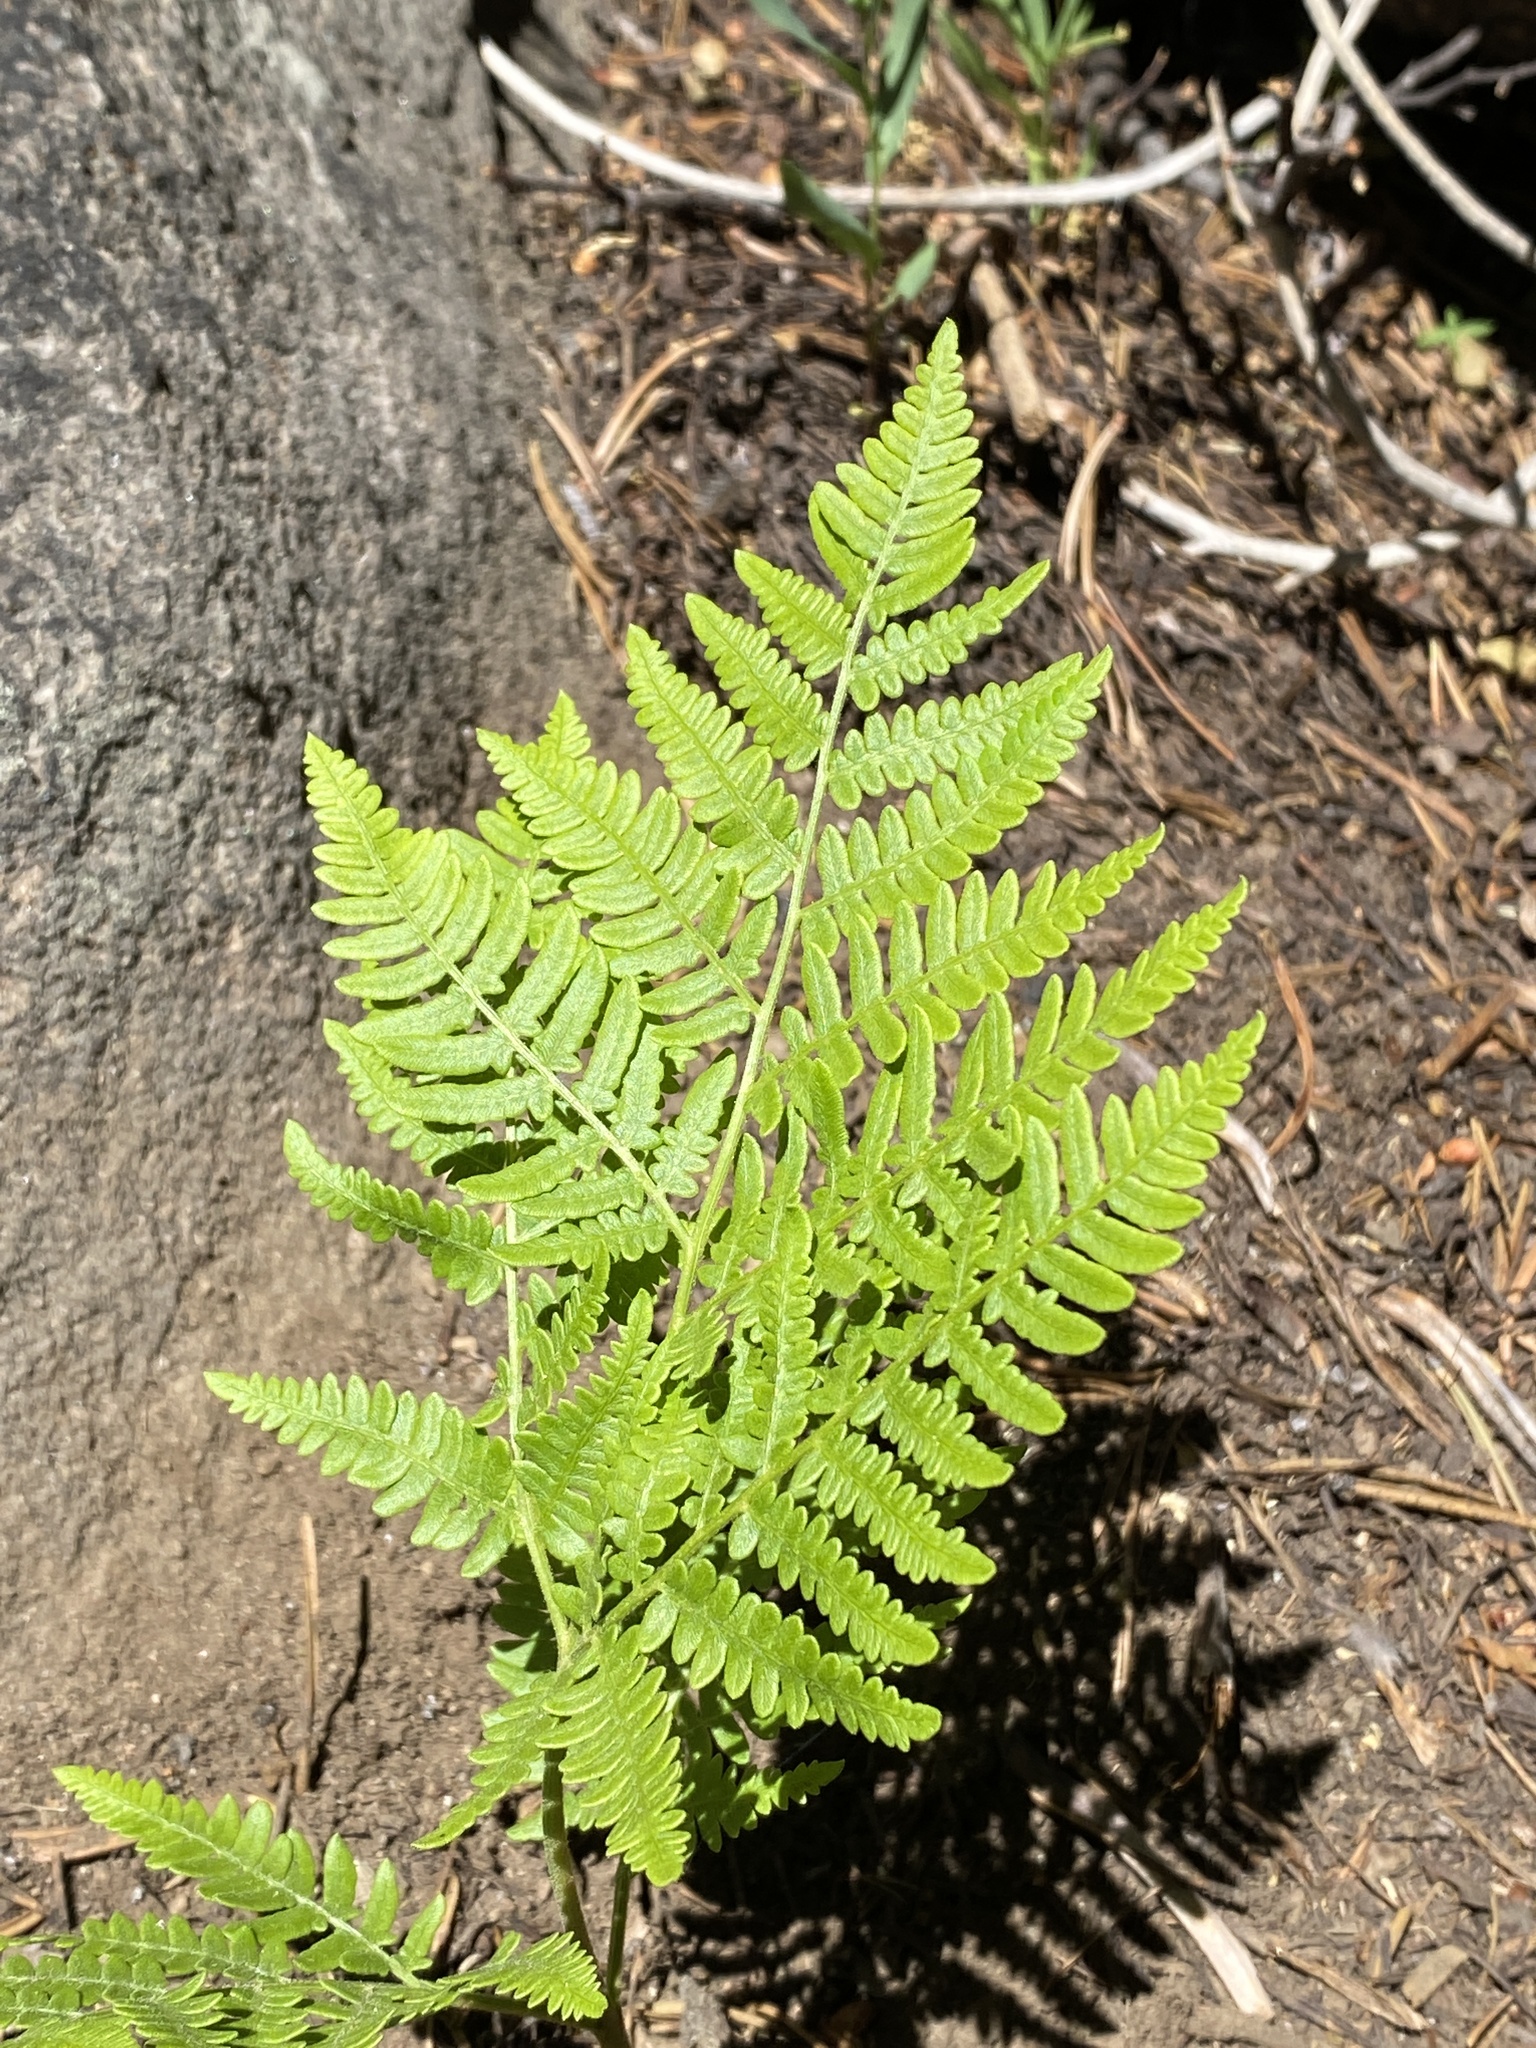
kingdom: Plantae
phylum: Tracheophyta
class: Polypodiopsida
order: Polypodiales
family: Dennstaedtiaceae
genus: Pteridium
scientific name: Pteridium aquilinum
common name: Bracken
